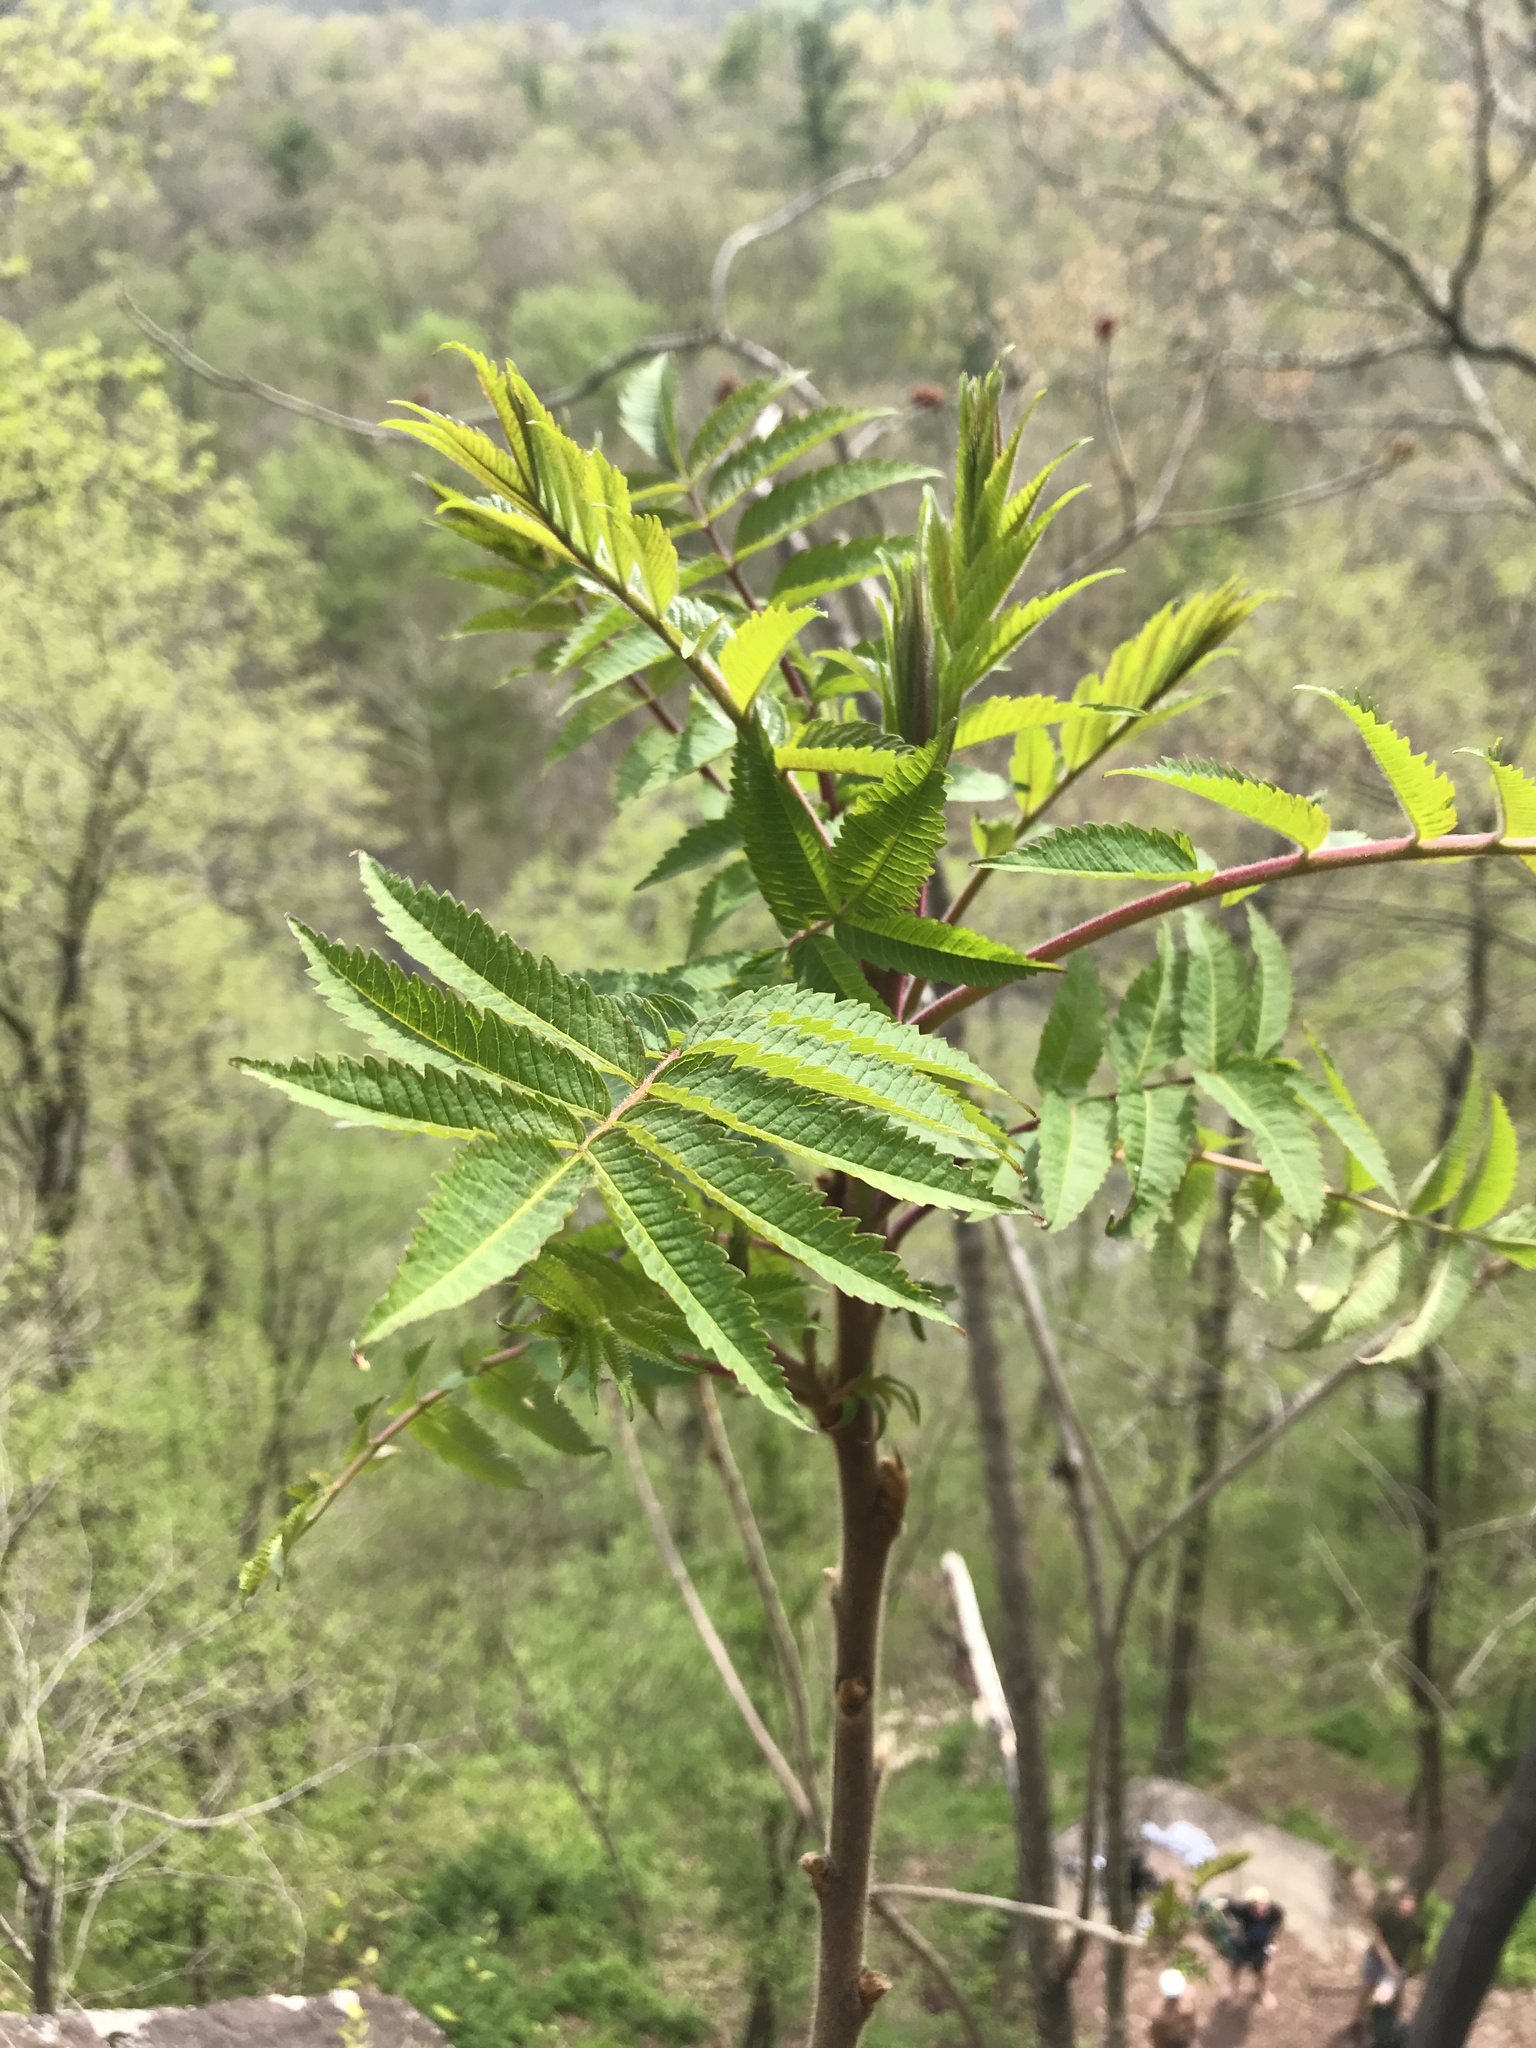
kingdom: Plantae
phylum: Tracheophyta
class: Magnoliopsida
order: Sapindales
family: Anacardiaceae
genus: Rhus
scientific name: Rhus typhina
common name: Staghorn sumac
